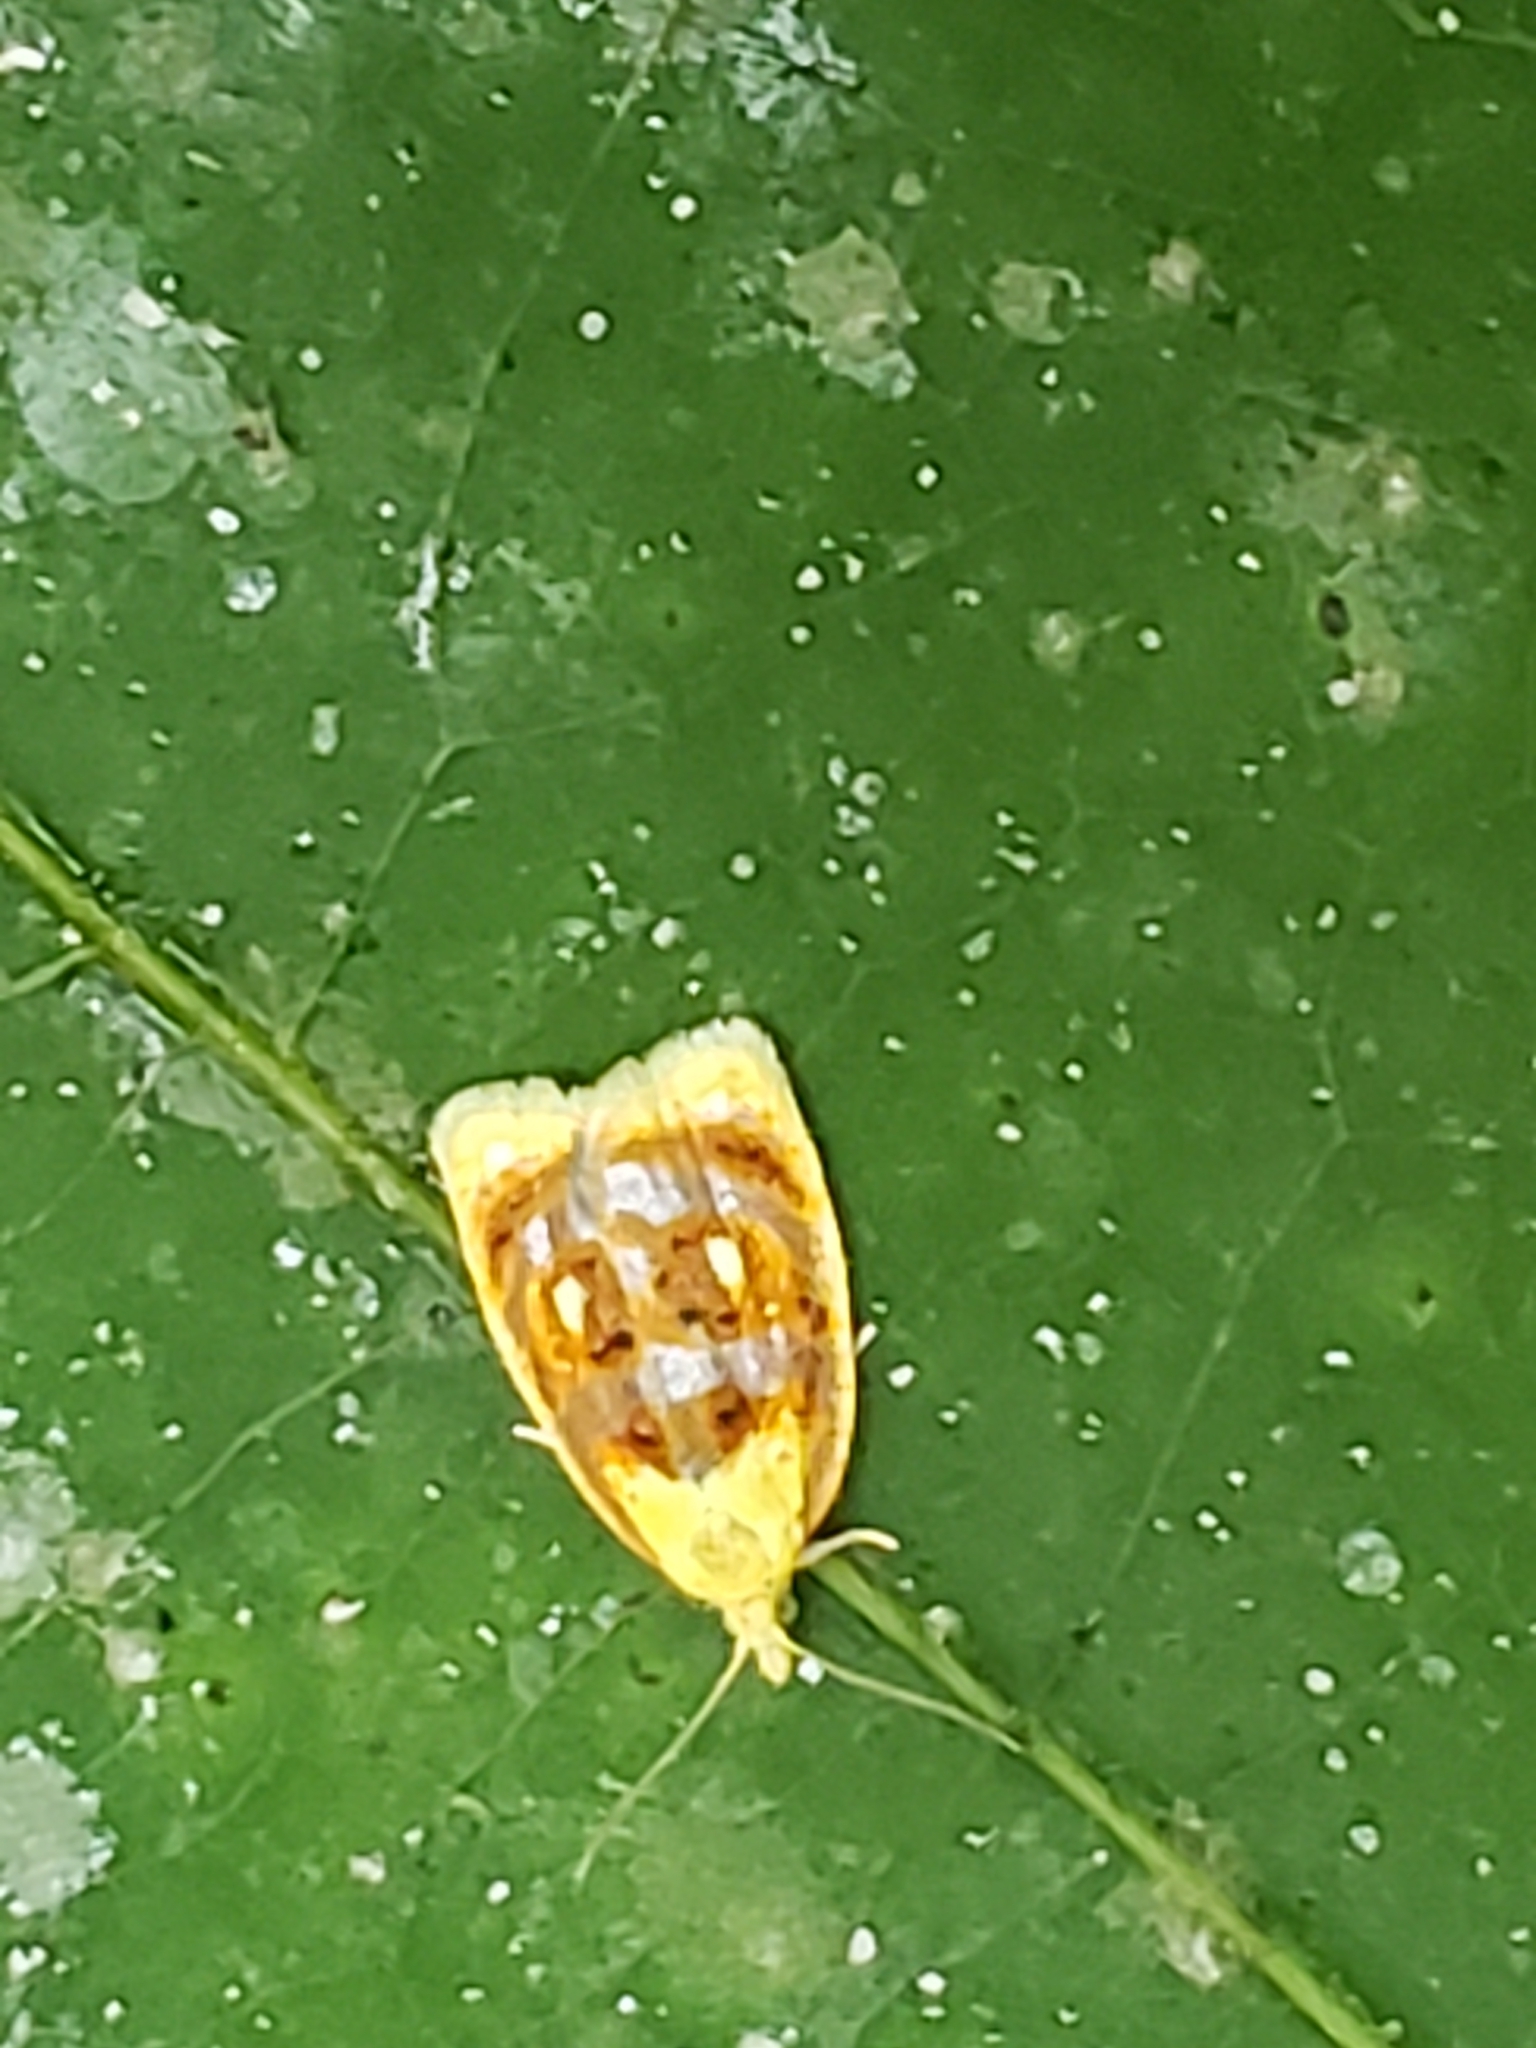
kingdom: Animalia
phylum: Arthropoda
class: Insecta
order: Lepidoptera
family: Tortricidae
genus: Acleris
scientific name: Acleris curvalana
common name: Blueberry leaftier moth
